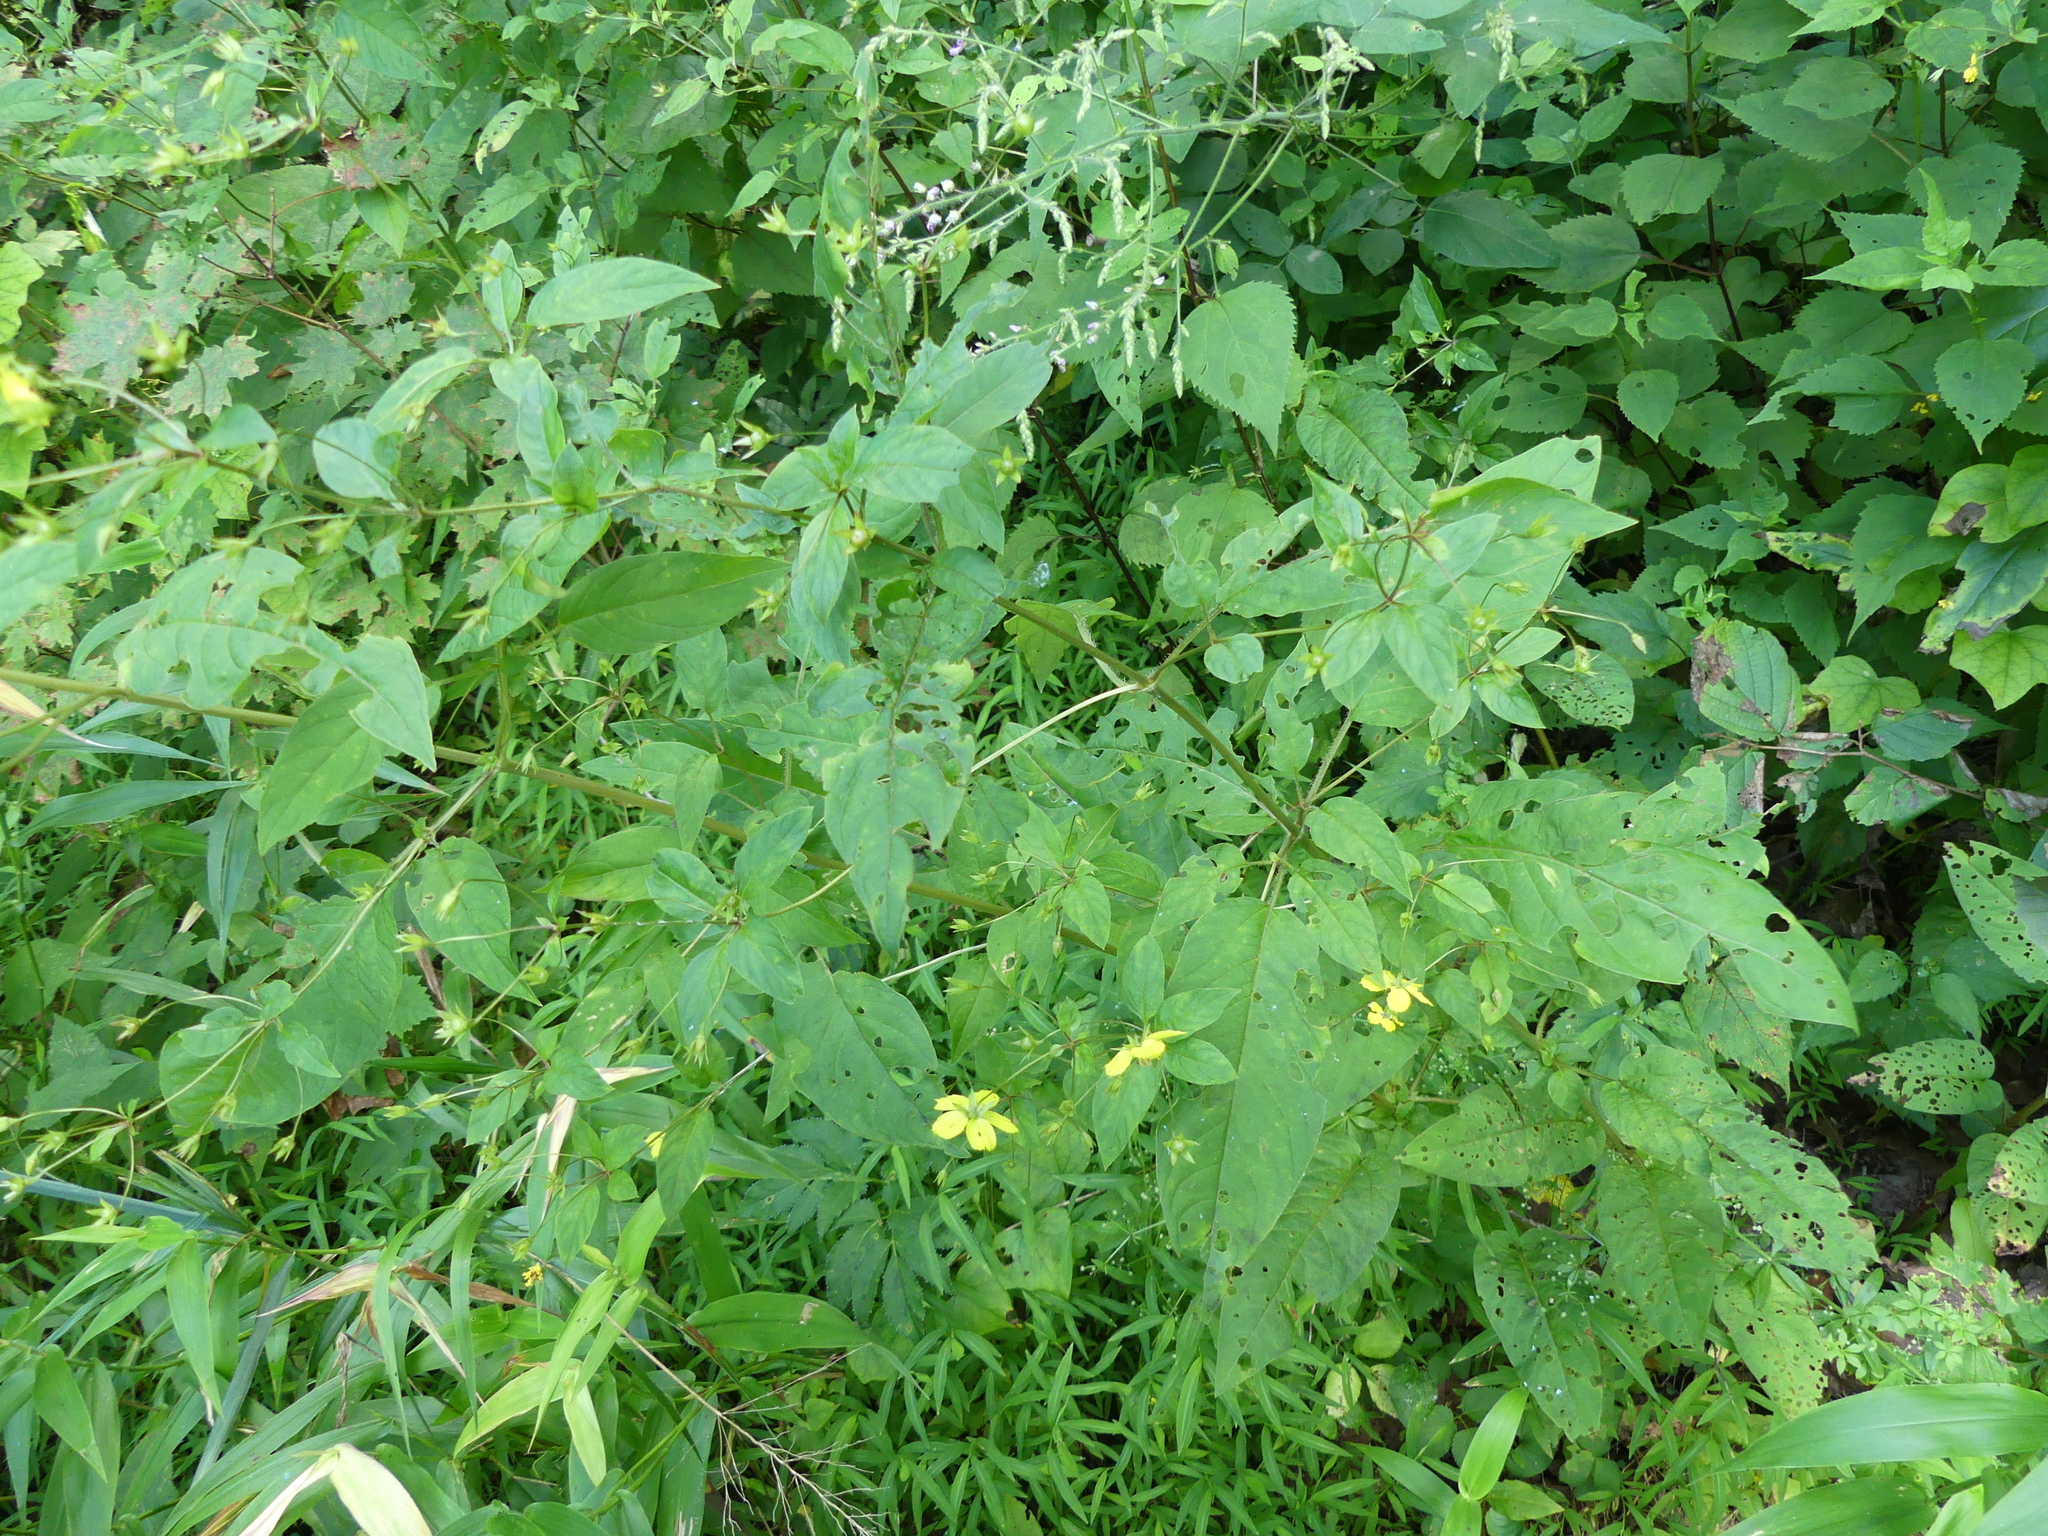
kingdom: Plantae
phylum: Tracheophyta
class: Magnoliopsida
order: Ericales
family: Primulaceae
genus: Lysimachia
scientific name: Lysimachia ciliata
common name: Fringed loosestrife
